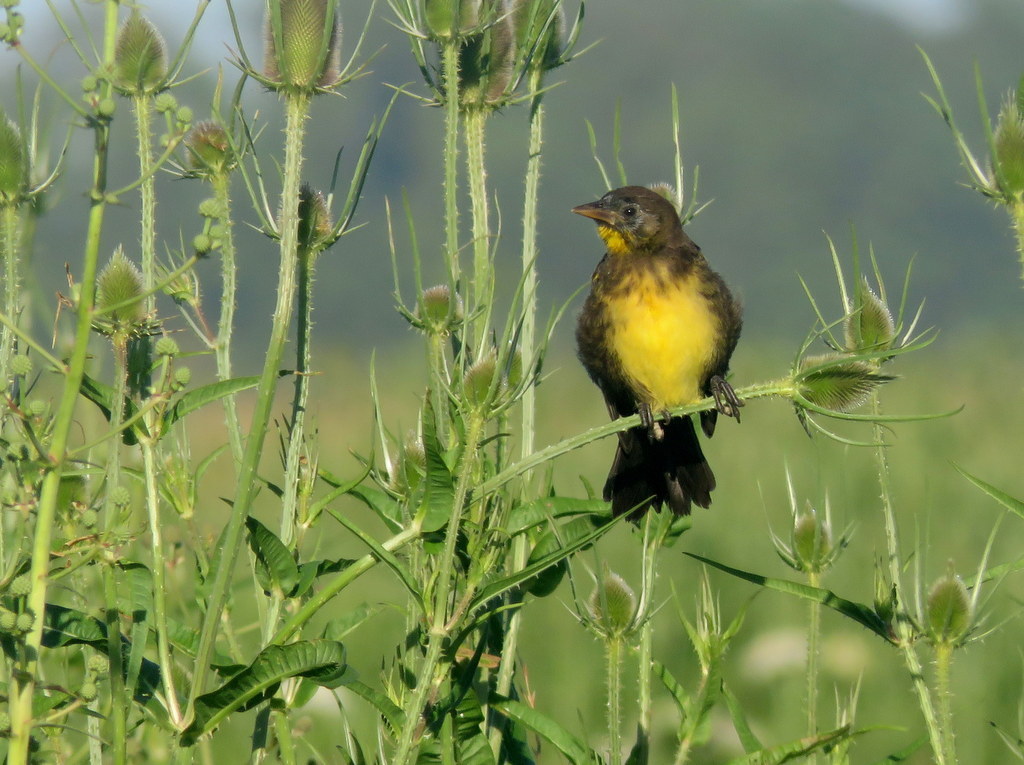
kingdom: Animalia
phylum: Chordata
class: Aves
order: Passeriformes
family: Icteridae
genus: Pseudoleistes
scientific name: Pseudoleistes virescens
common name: Brown-and-yellow marshbird
